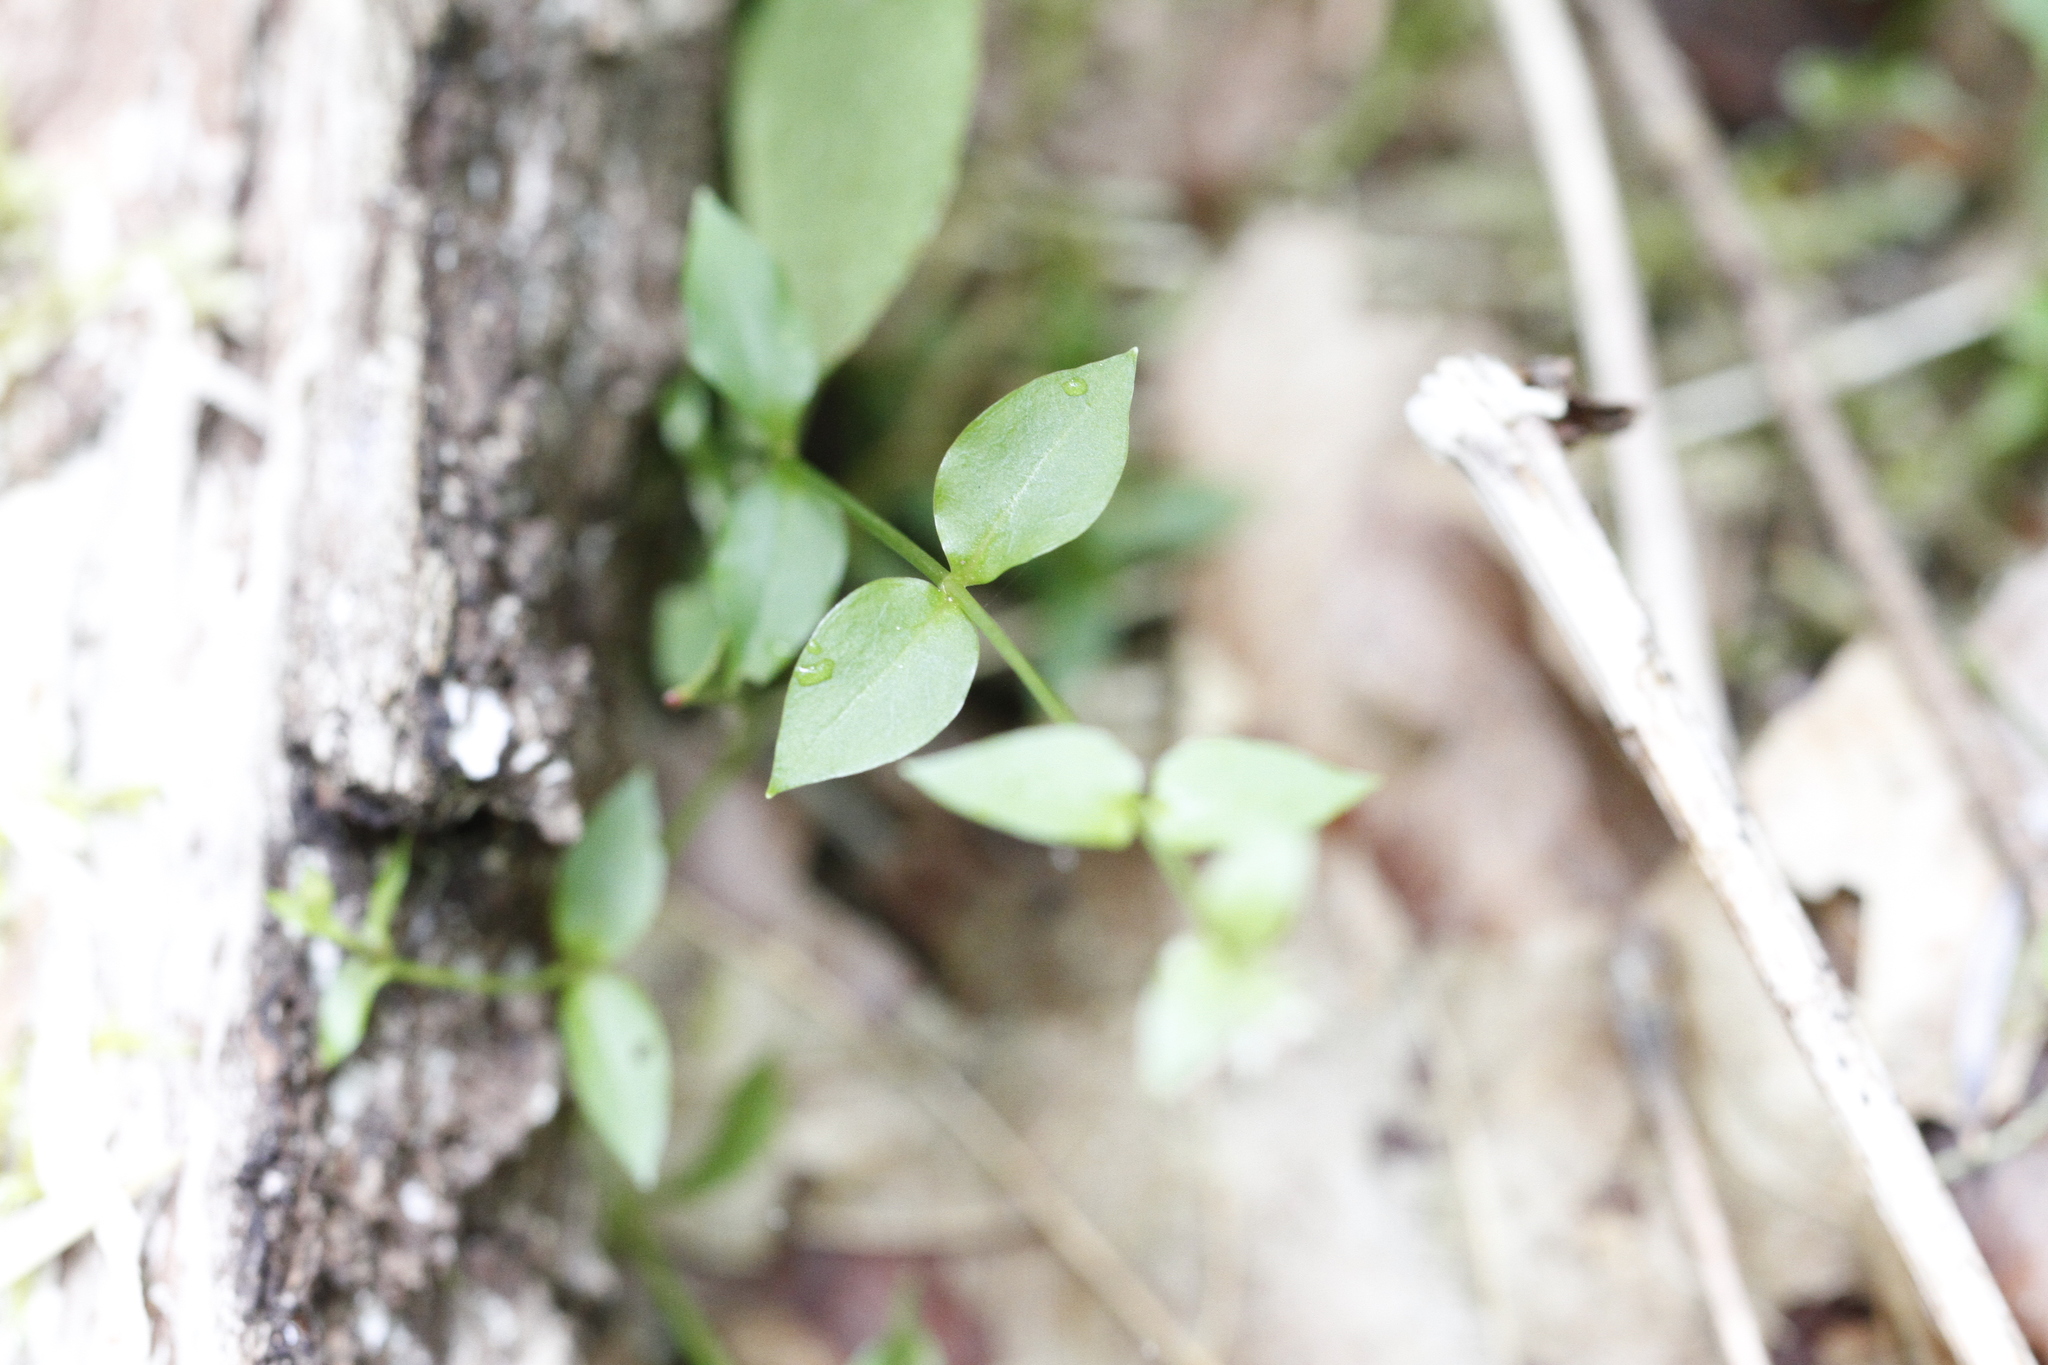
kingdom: Plantae
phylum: Tracheophyta
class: Magnoliopsida
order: Caryophyllales
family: Caryophyllaceae
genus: Stellaria
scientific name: Stellaria crispa
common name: Crimped stitchwort
